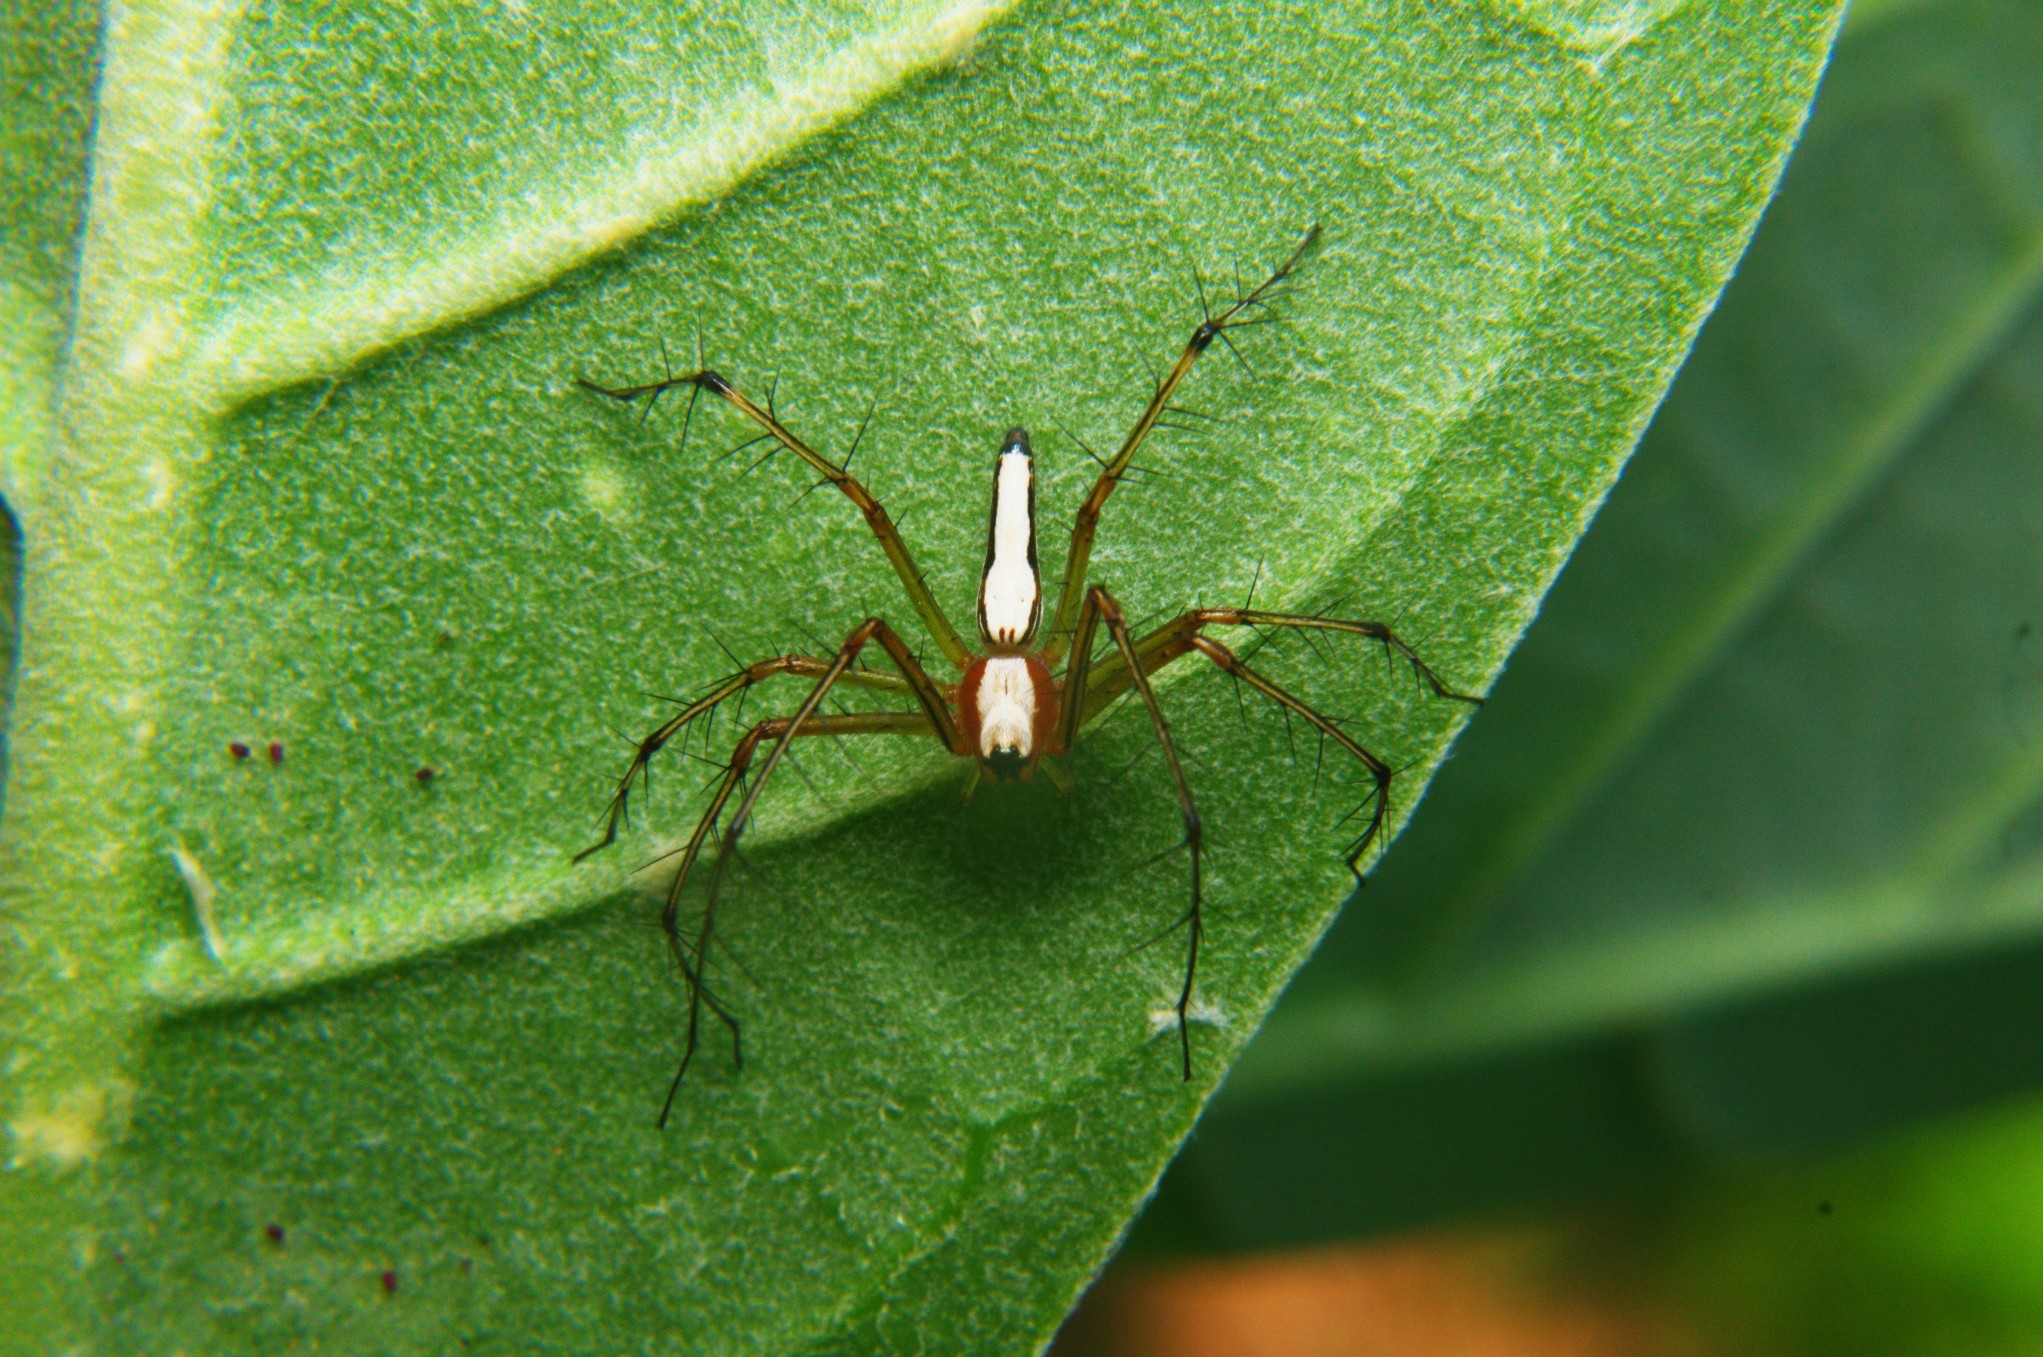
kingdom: Animalia
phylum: Arthropoda
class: Arachnida
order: Araneae
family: Oxyopidae
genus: Oxyopes
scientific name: Oxyopes shweta
